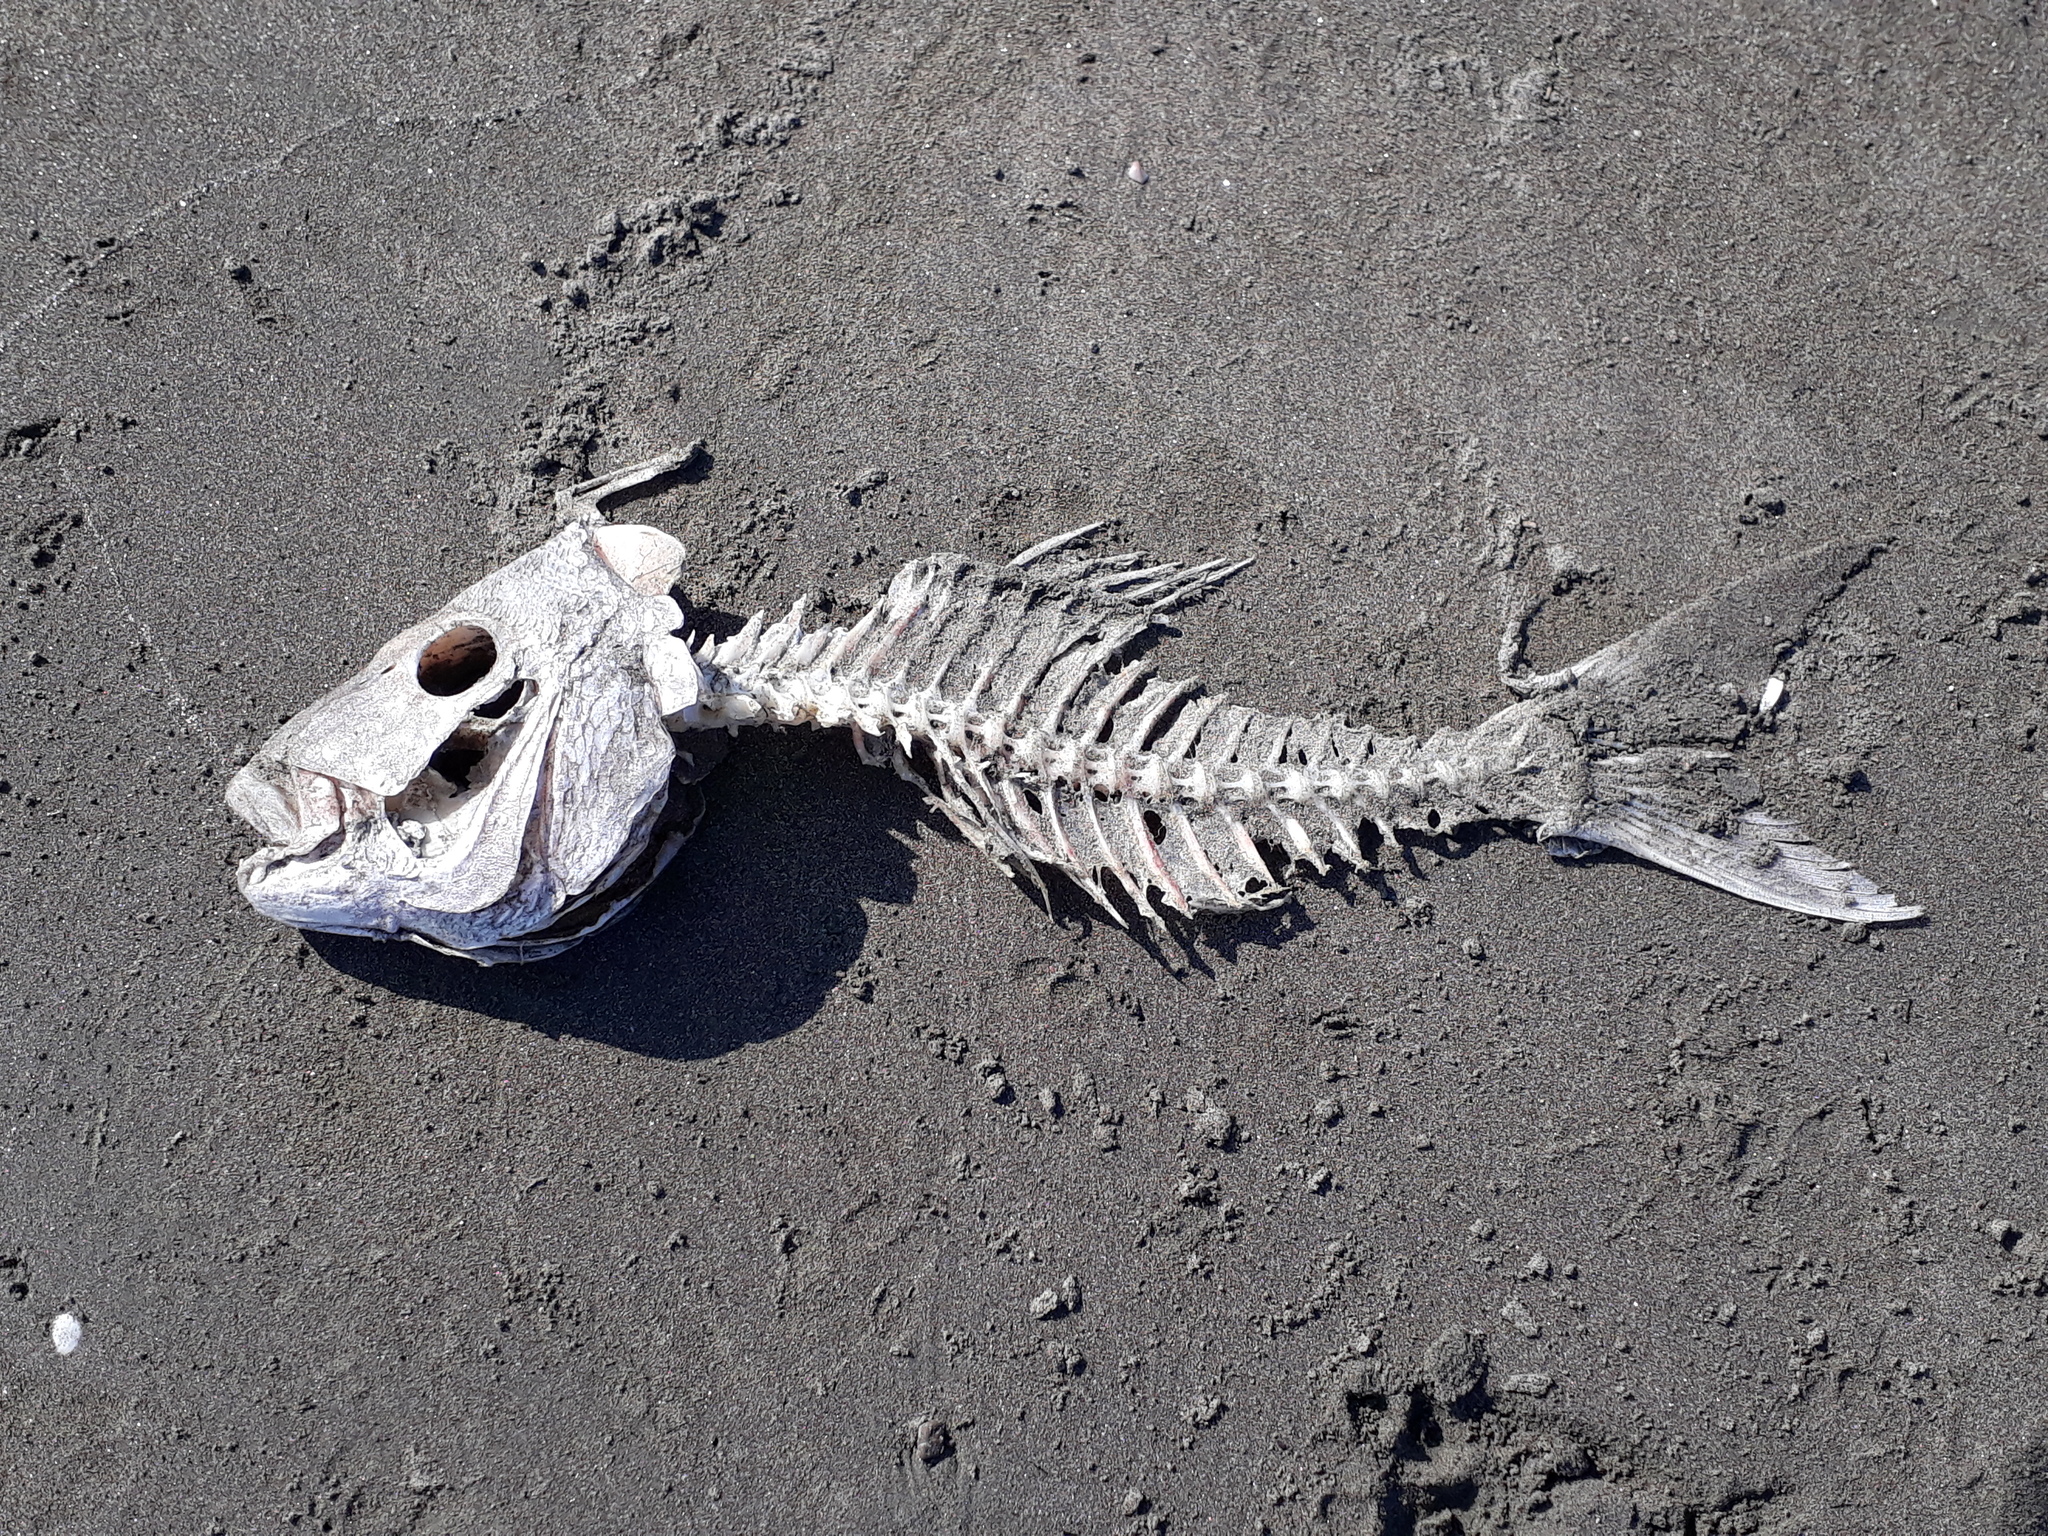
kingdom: Animalia
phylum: Chordata
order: Perciformes
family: Sparidae
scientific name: Sparidae
